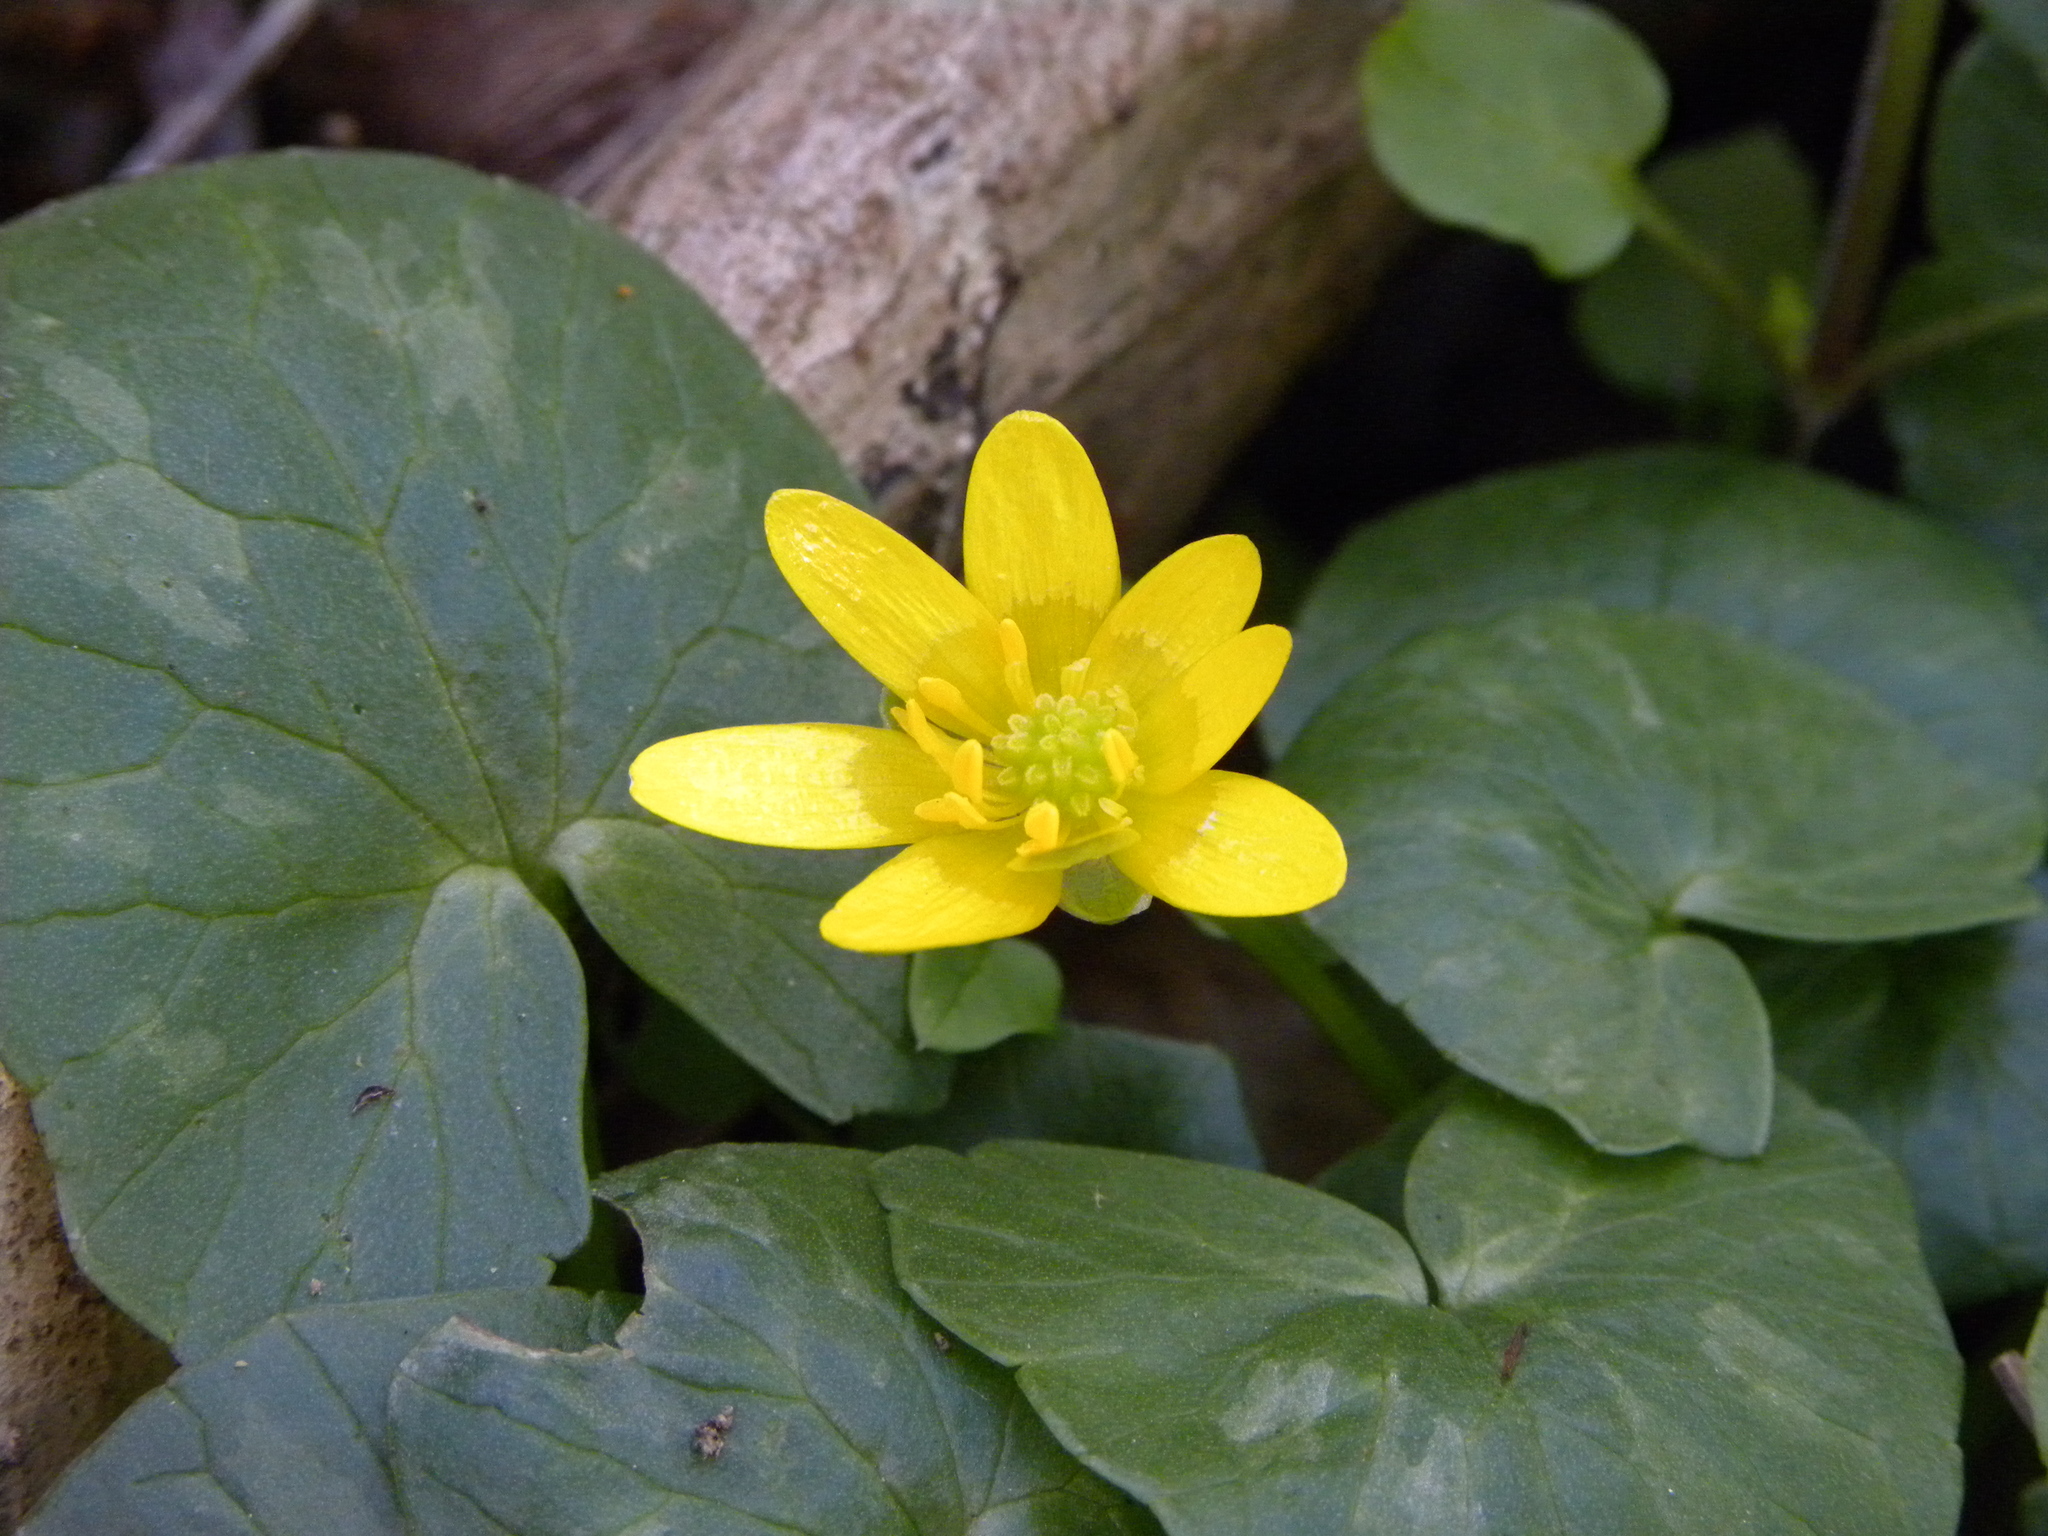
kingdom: Plantae
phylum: Tracheophyta
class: Magnoliopsida
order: Ranunculales
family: Ranunculaceae
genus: Ficaria
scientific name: Ficaria verna
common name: Lesser celandine
